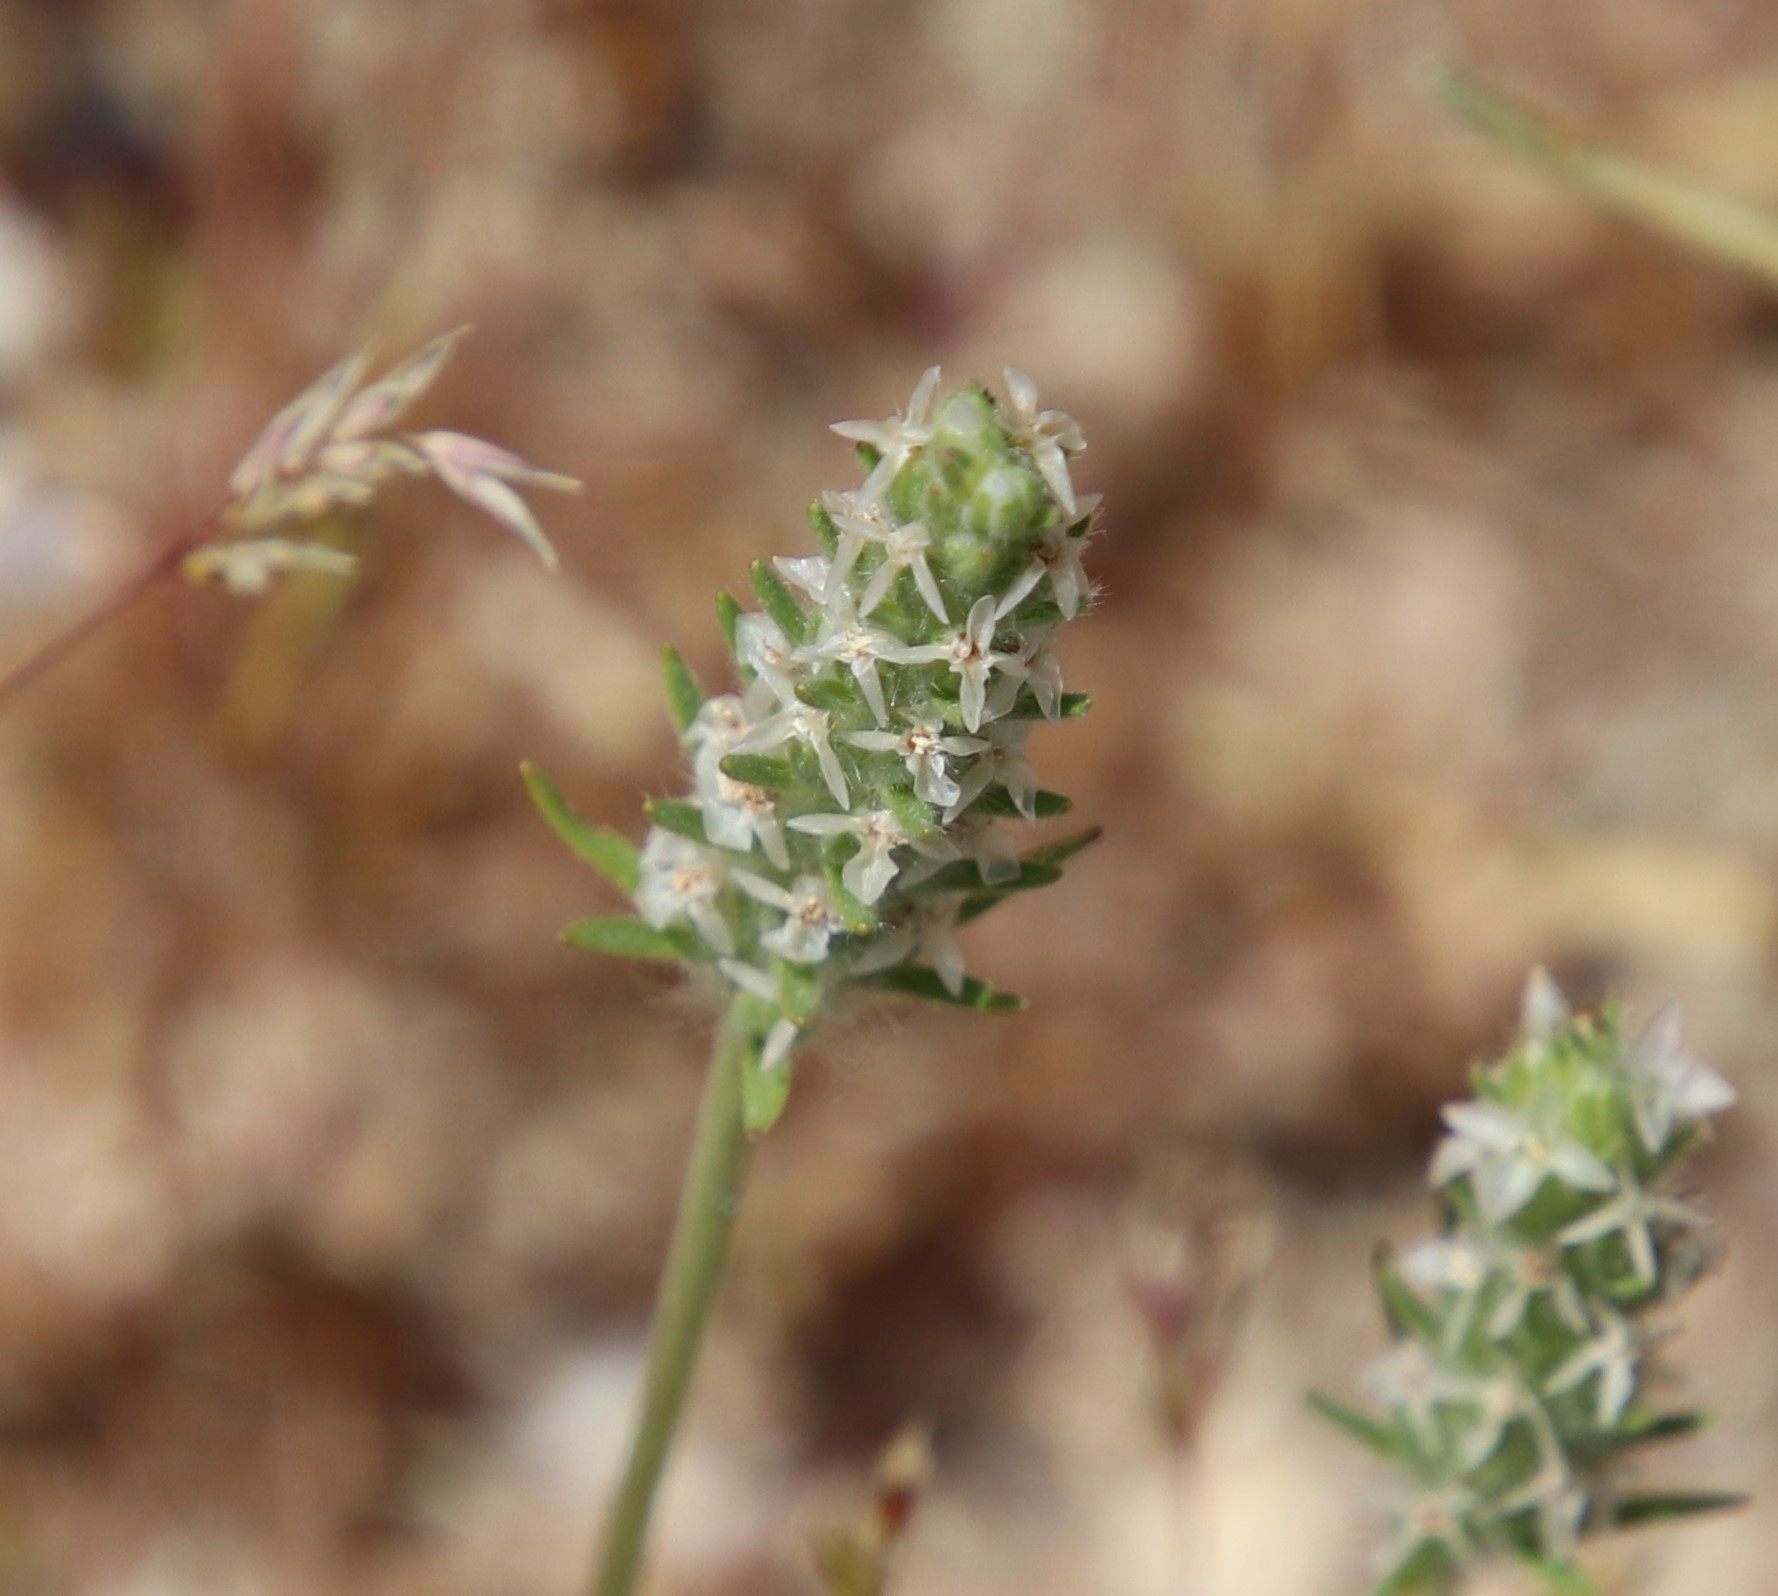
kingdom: Plantae
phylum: Tracheophyta
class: Magnoliopsida
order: Lamiales
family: Plantaginaceae
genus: Plantago
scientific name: Plantago patagonica
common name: Patagonia indian-wheat
